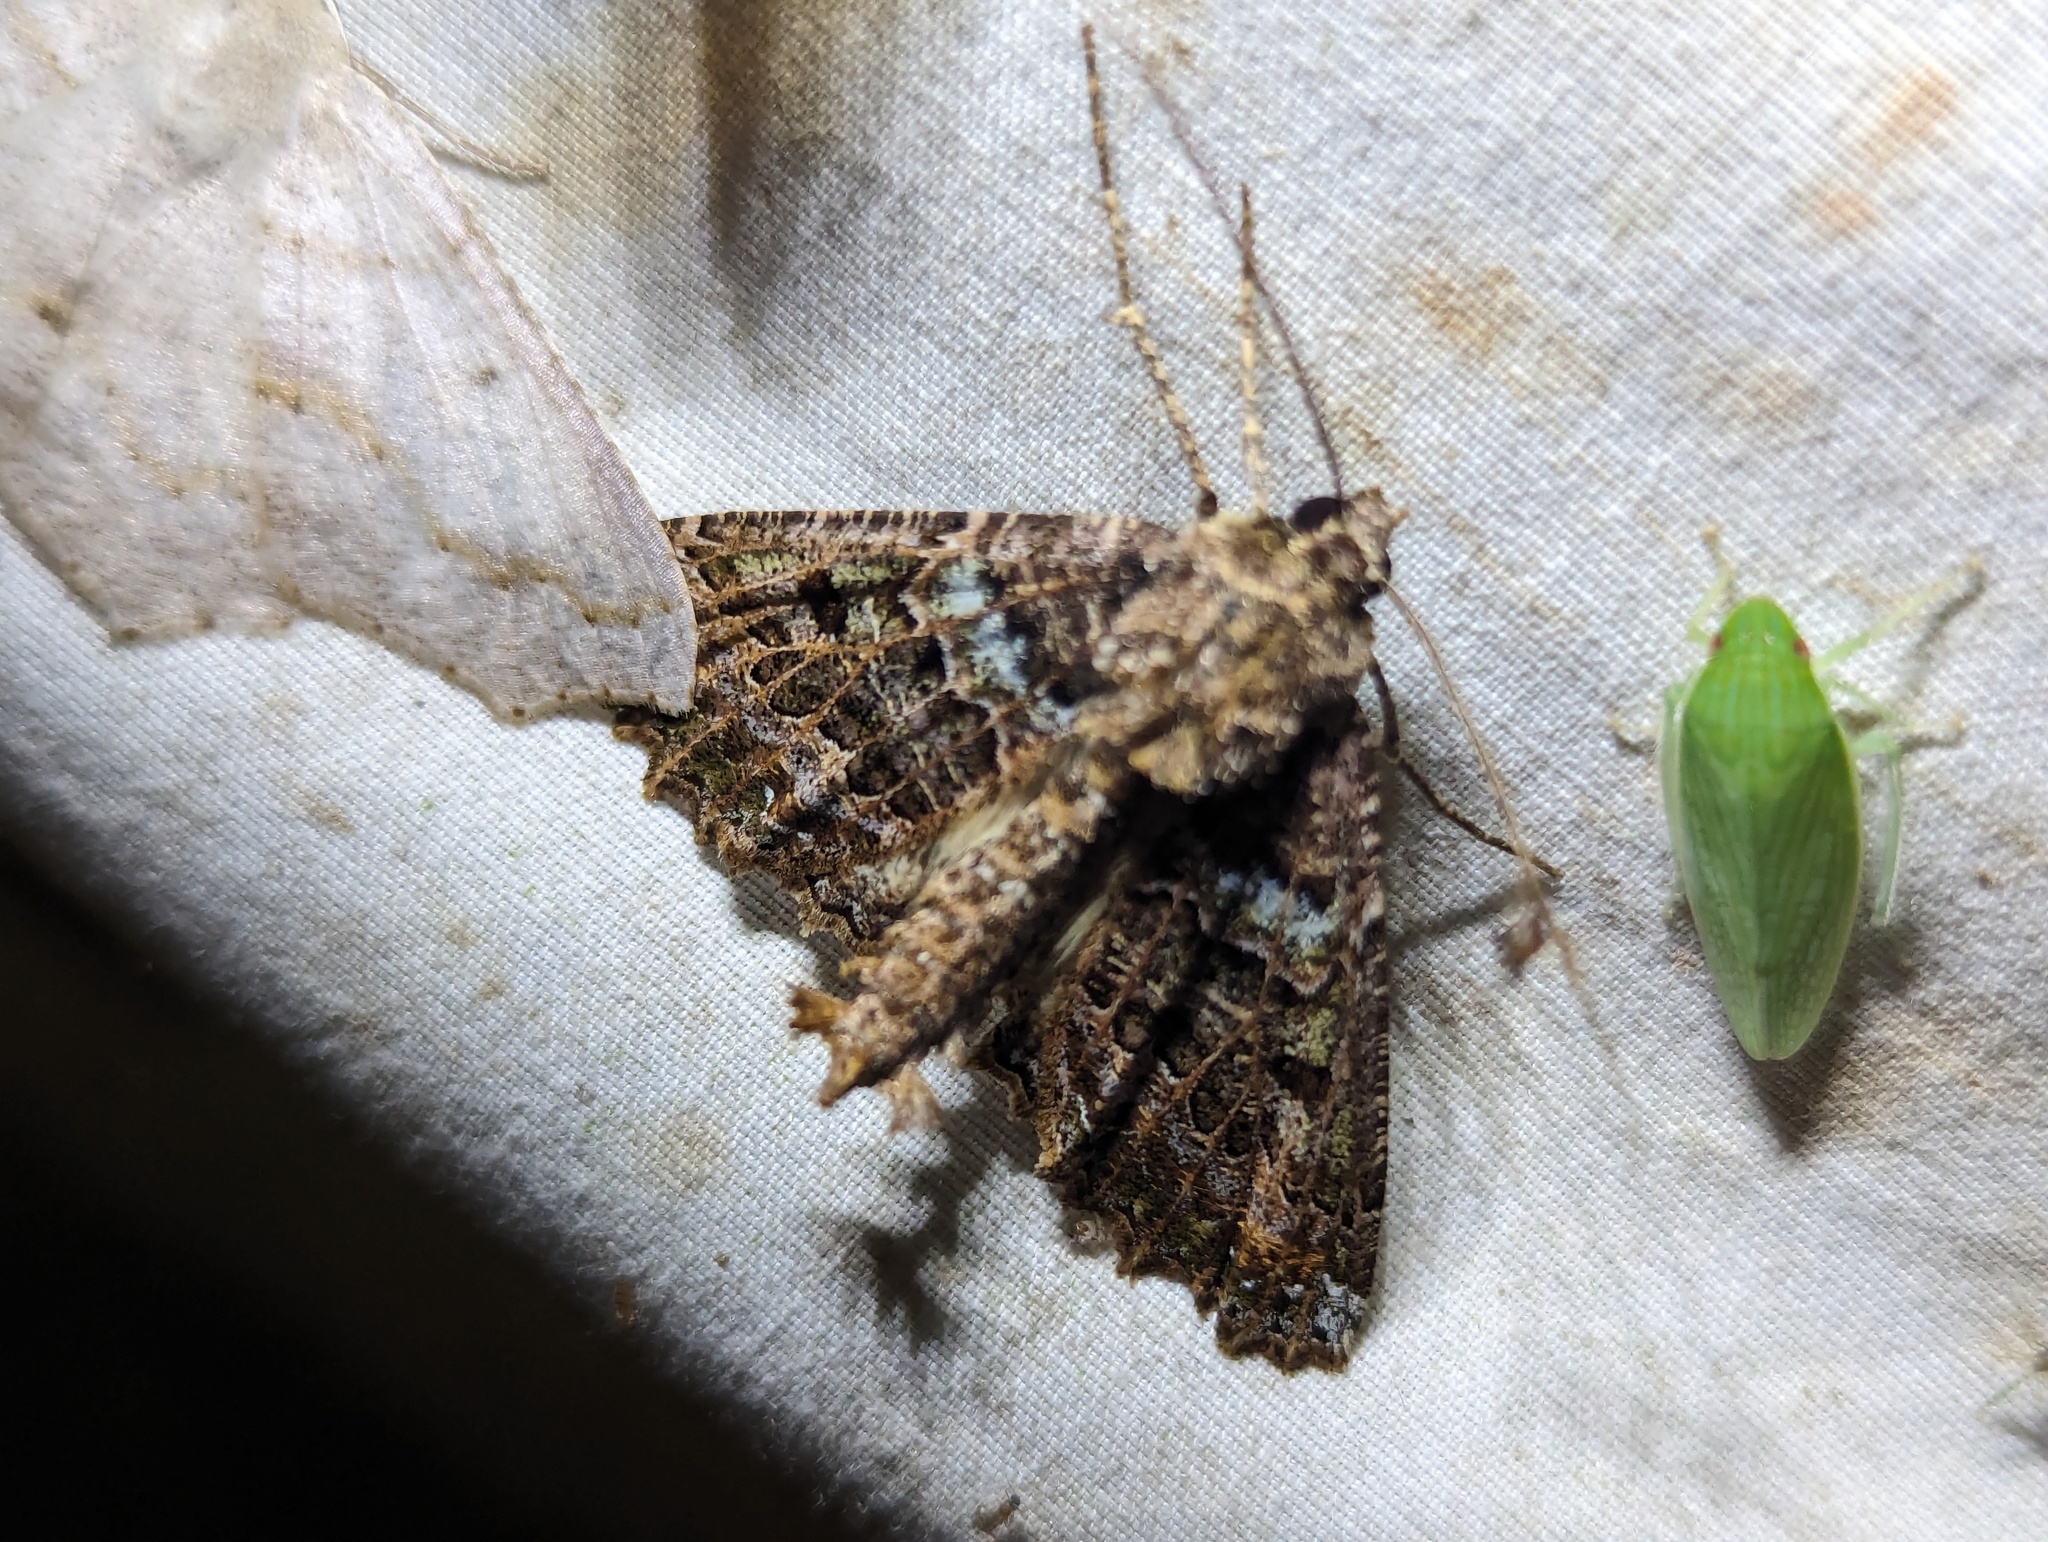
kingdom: Animalia
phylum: Arthropoda
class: Insecta
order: Lepidoptera
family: Geometridae
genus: Aragua
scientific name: Aragua bistonaria
